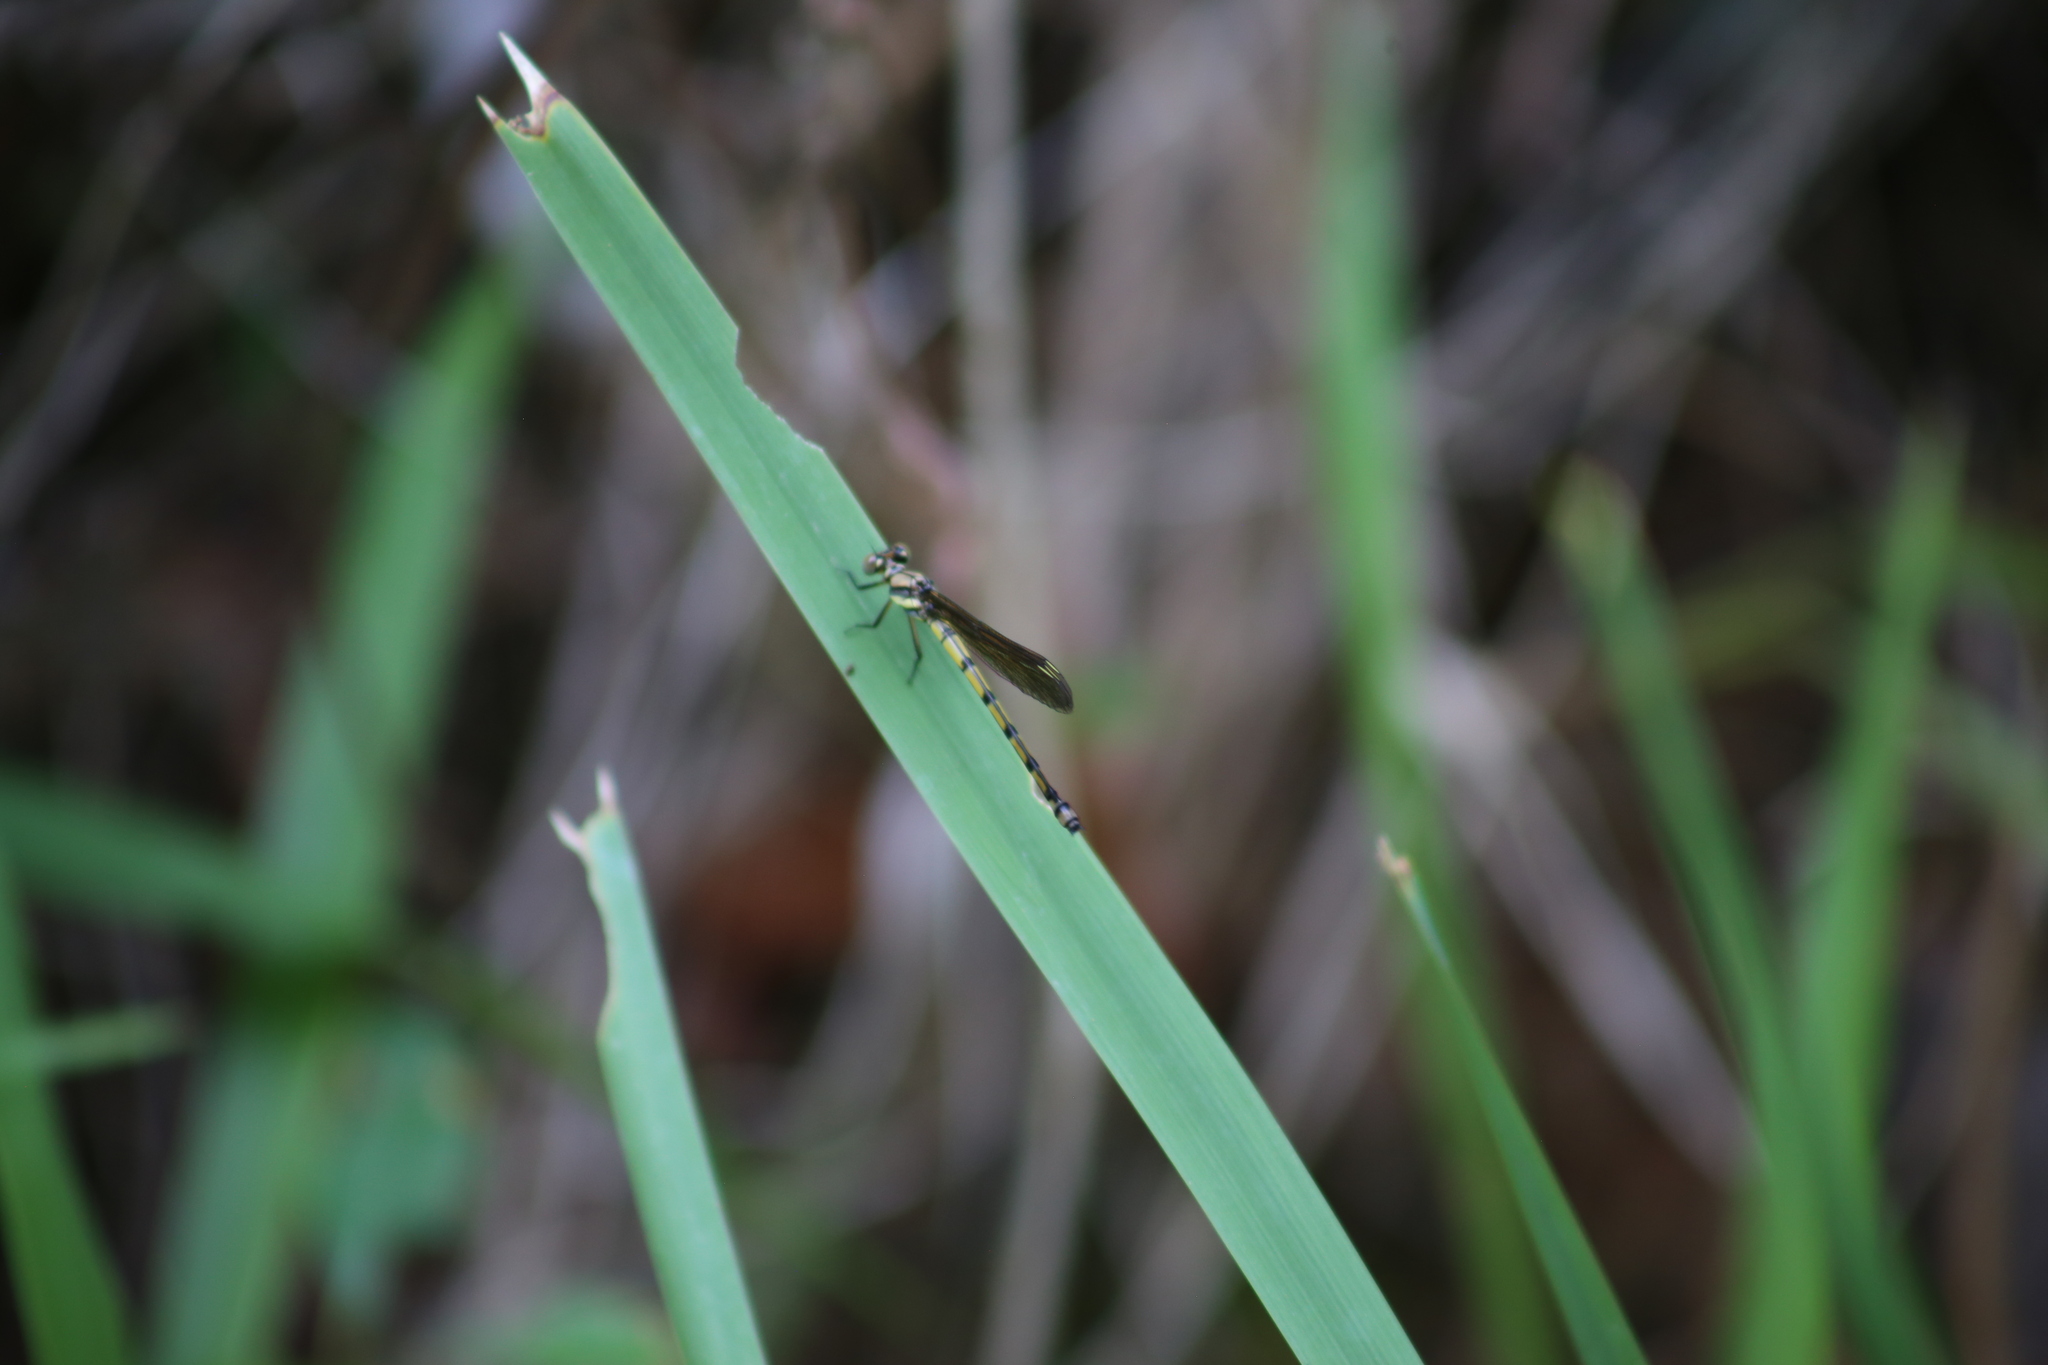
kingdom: Animalia
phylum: Arthropoda
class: Insecta
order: Odonata
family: Lestoideidae
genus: Diphlebia
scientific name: Diphlebia coerulescens
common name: Sapphire rockmaster
